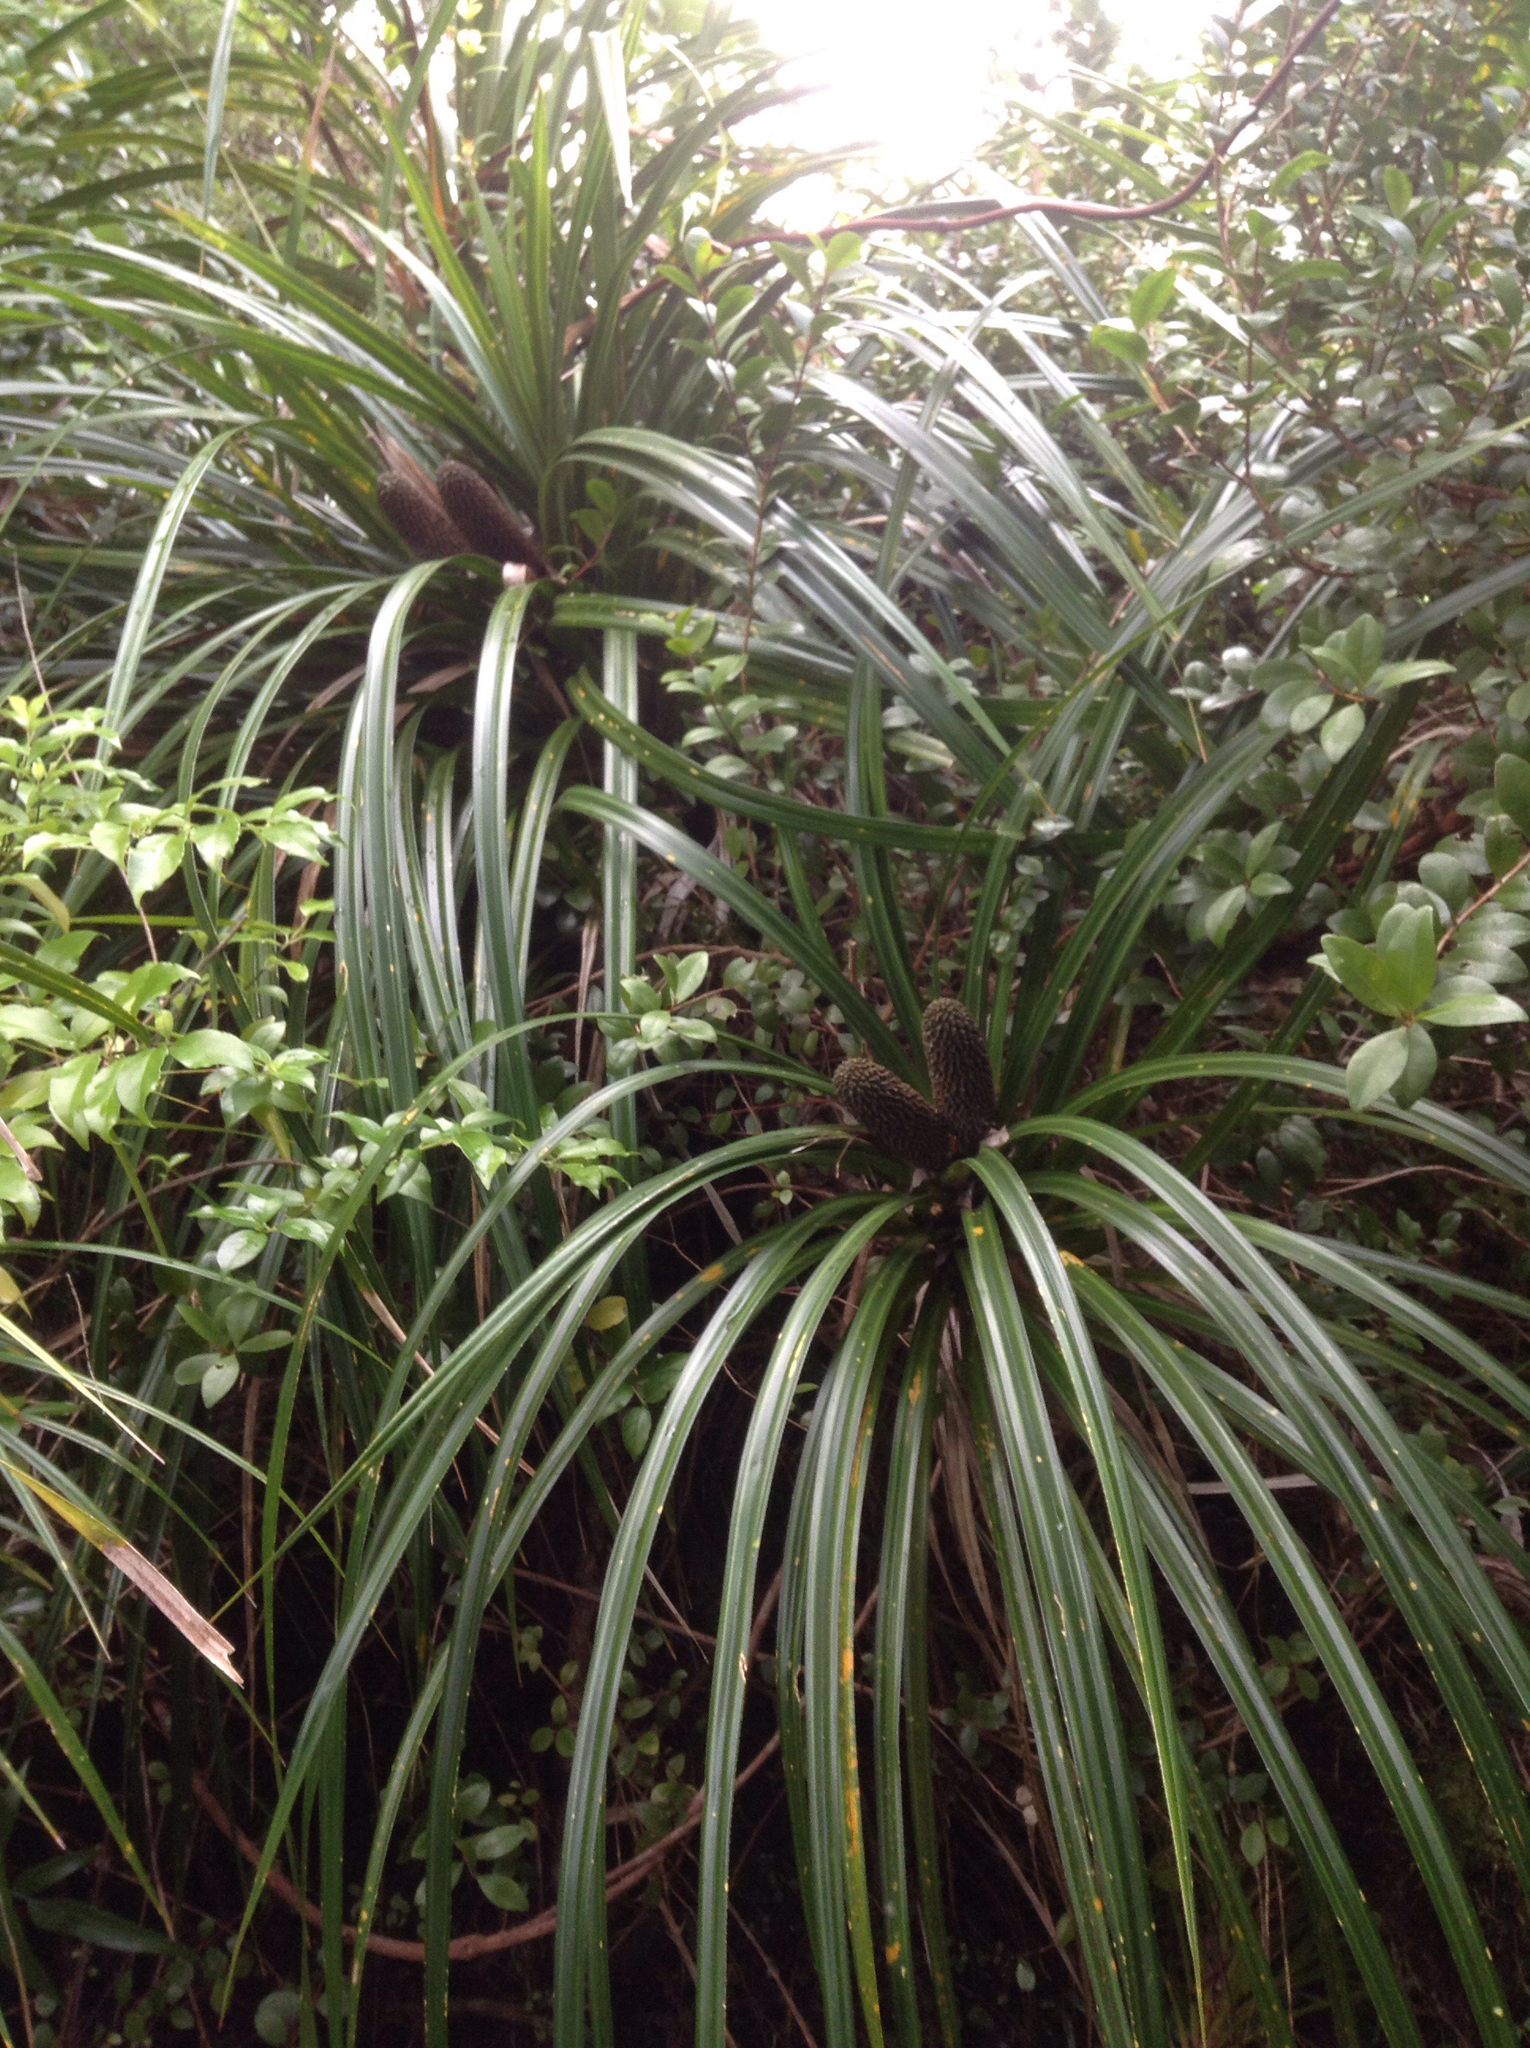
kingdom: Plantae
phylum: Tracheophyta
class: Liliopsida
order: Pandanales
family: Pandanaceae
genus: Freycinetia
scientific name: Freycinetia banksii
